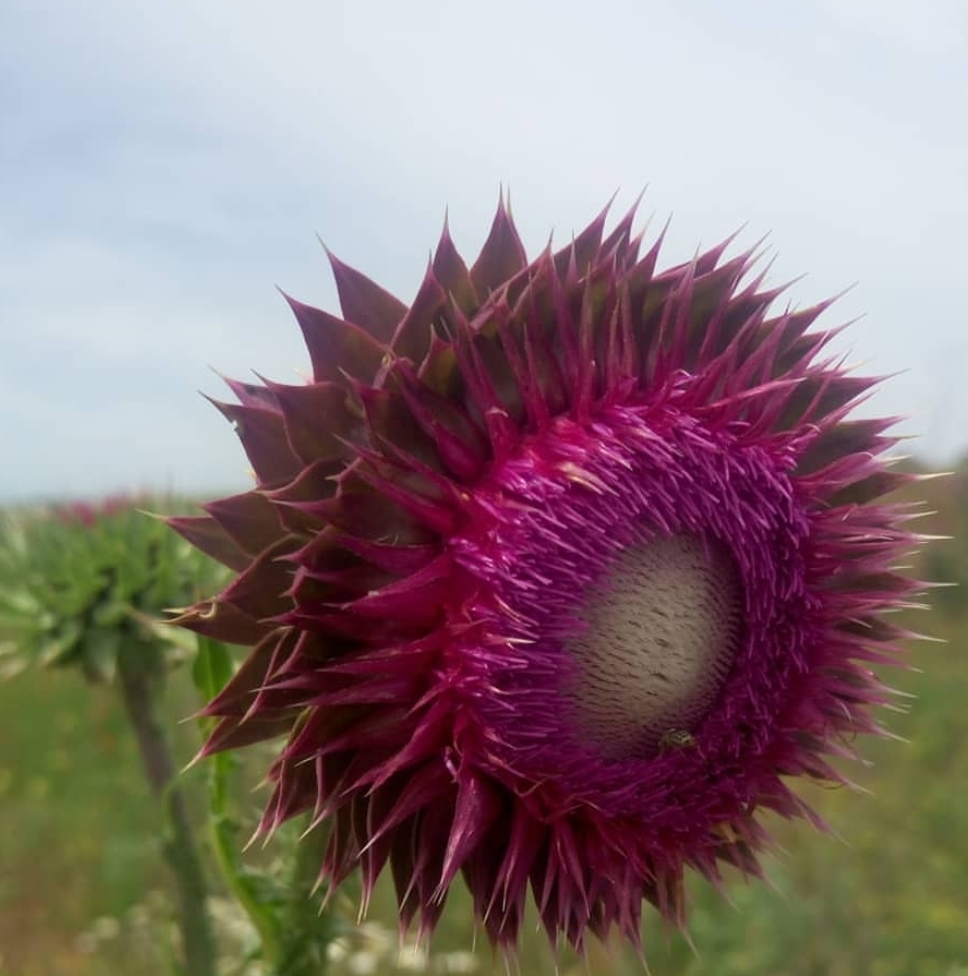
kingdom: Plantae
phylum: Tracheophyta
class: Magnoliopsida
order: Asterales
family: Asteraceae
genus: Carduus
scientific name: Carduus nutans
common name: Musk thistle
